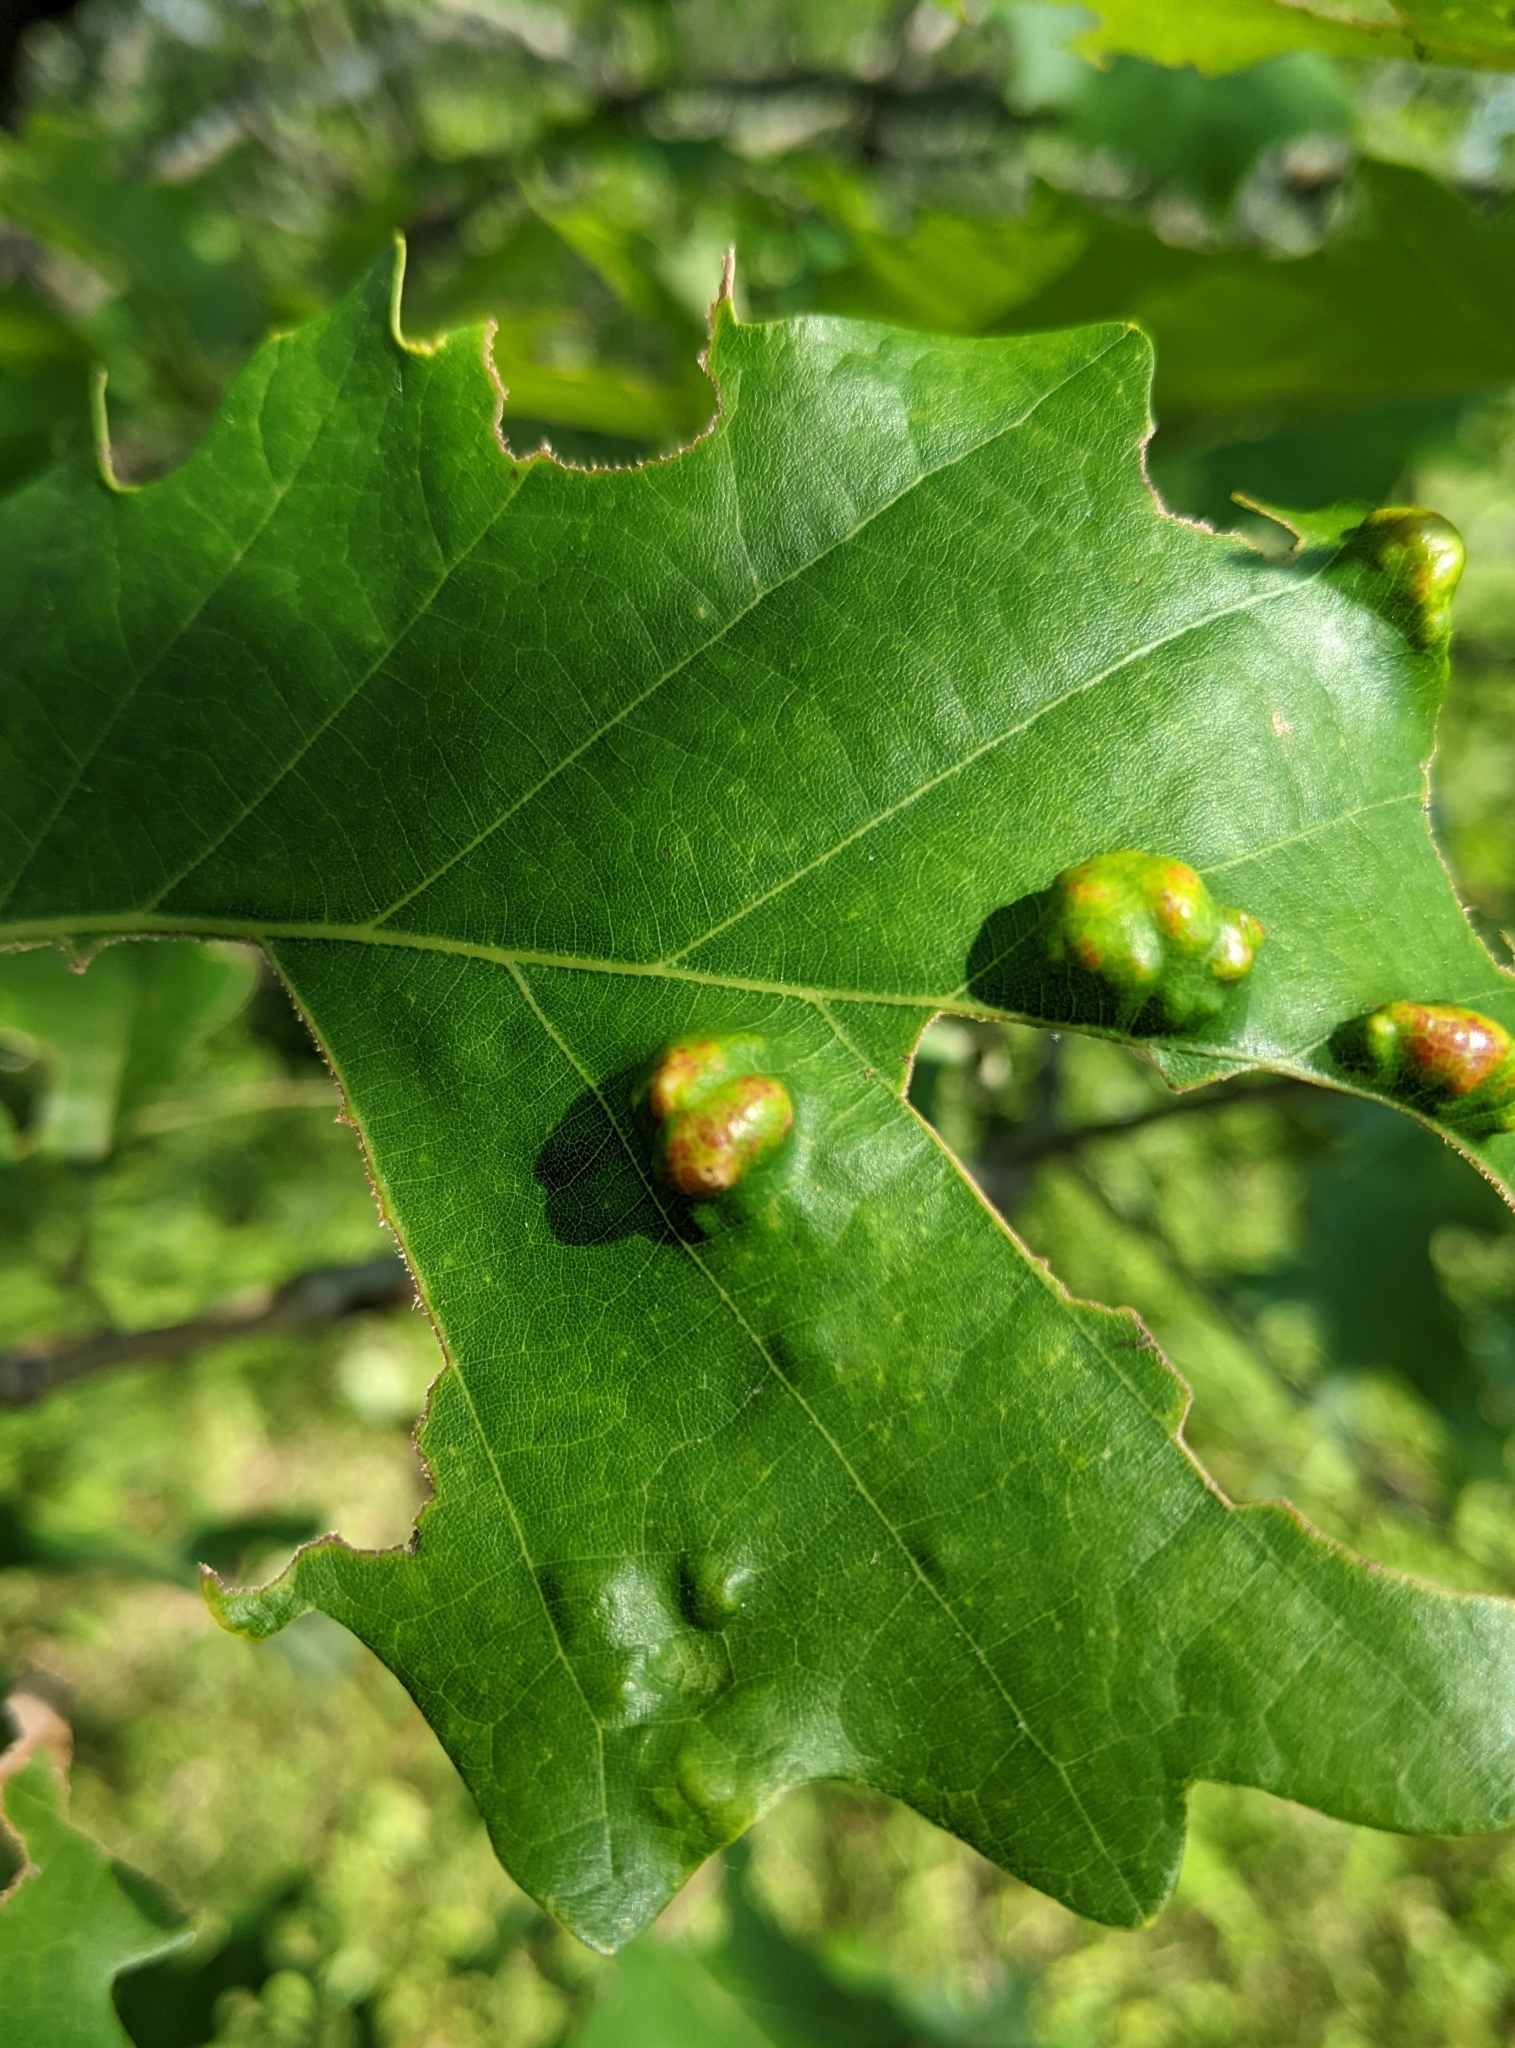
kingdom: Animalia
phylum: Arthropoda
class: Arachnida
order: Trombidiformes
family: Eriophyidae
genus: Aceria
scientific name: Aceria quercina
